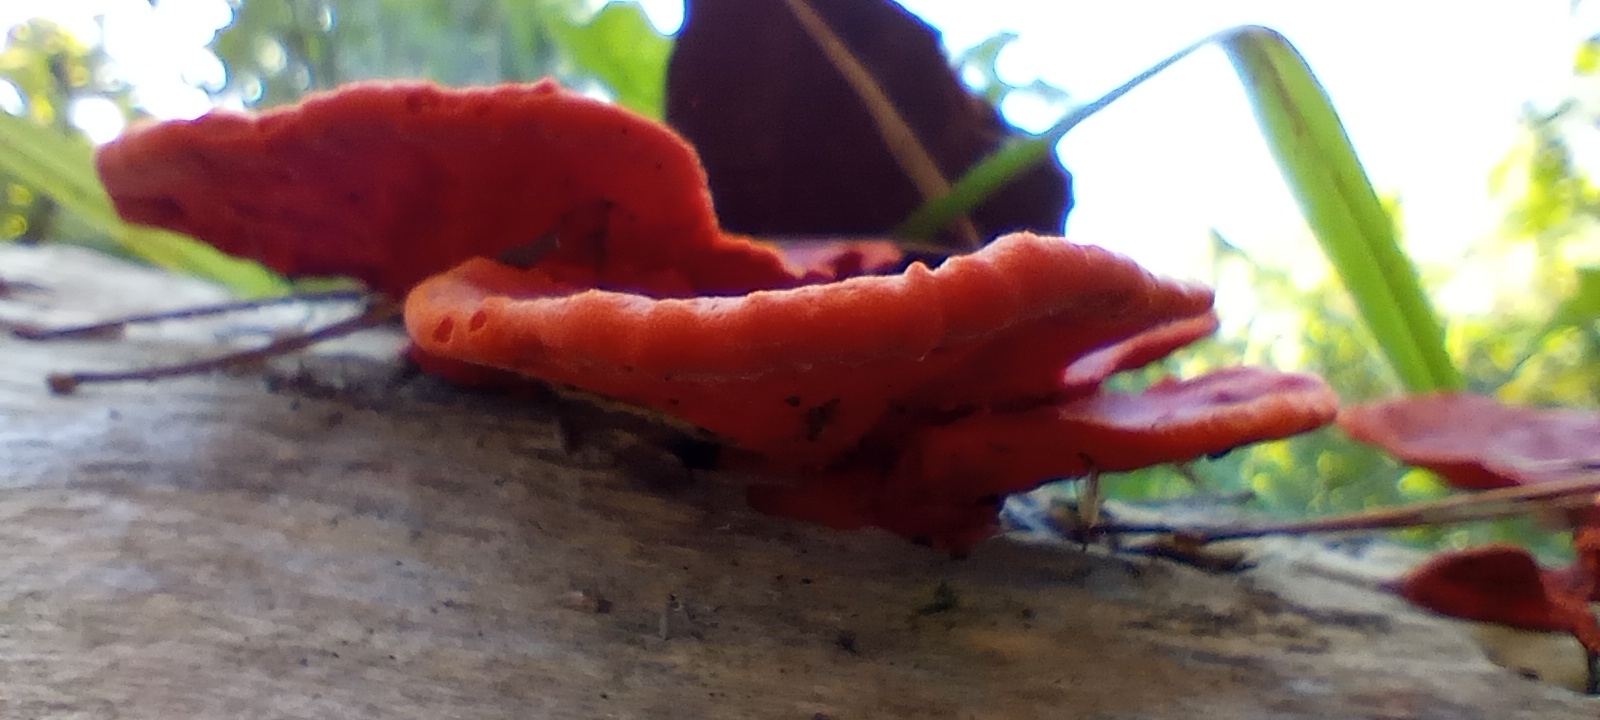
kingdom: Fungi
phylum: Basidiomycota
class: Agaricomycetes
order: Polyporales
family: Polyporaceae
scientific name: Polyporaceae
